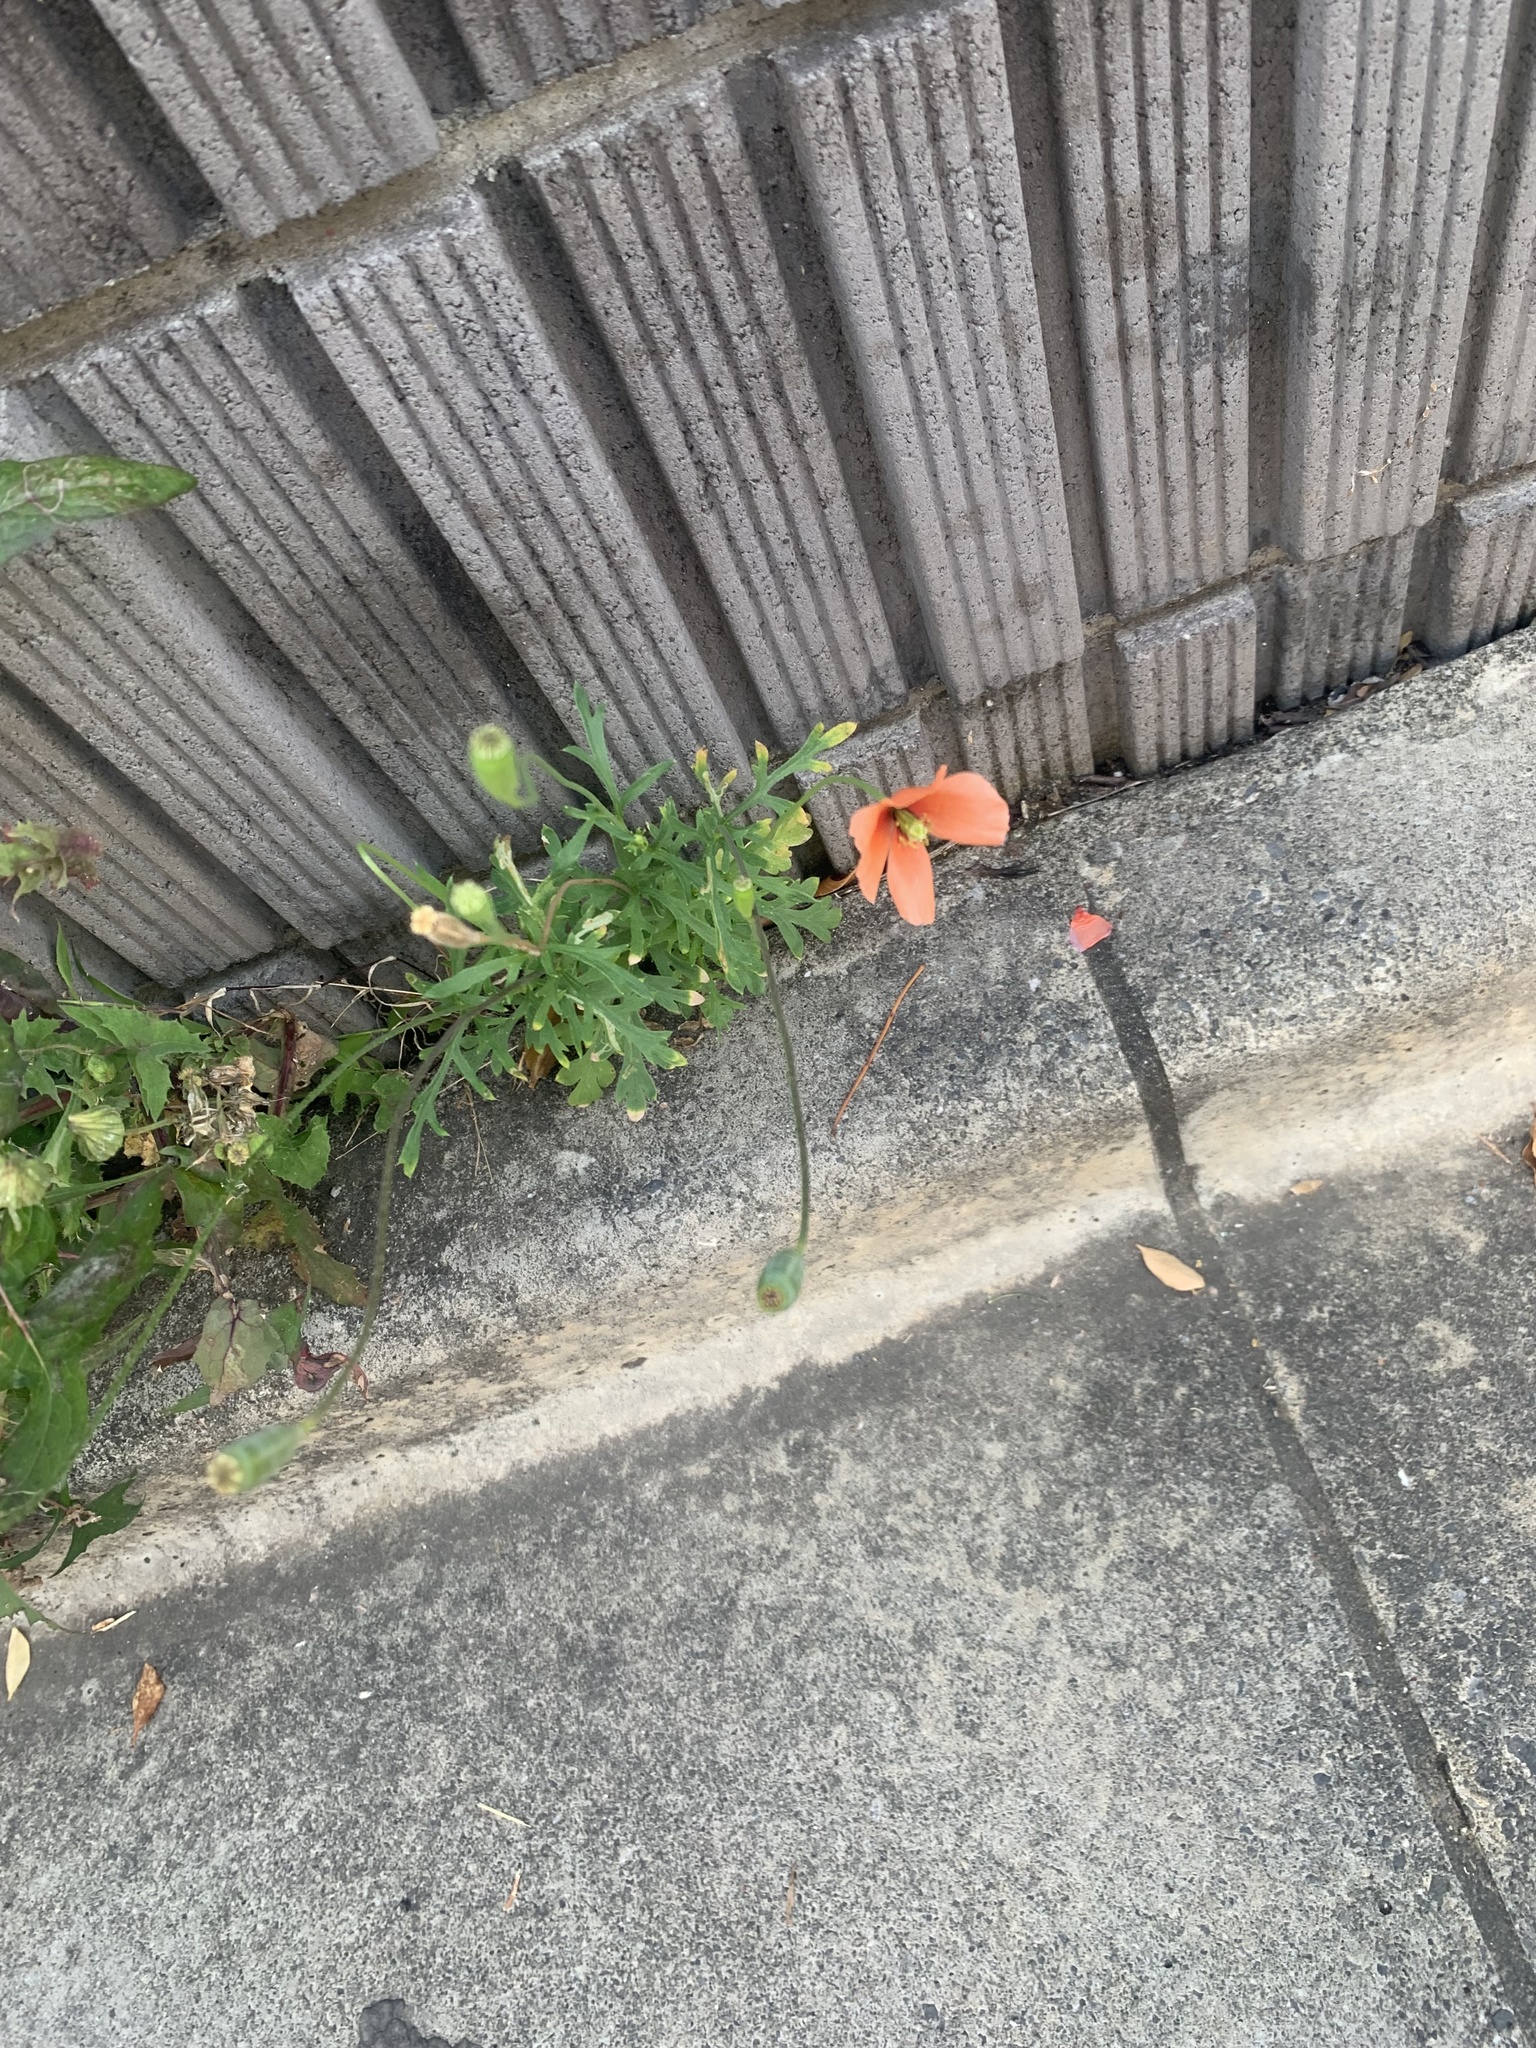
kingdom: Plantae
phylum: Tracheophyta
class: Magnoliopsida
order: Ranunculales
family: Papaveraceae
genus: Papaver
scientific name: Papaver dubium
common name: Long-headed poppy
